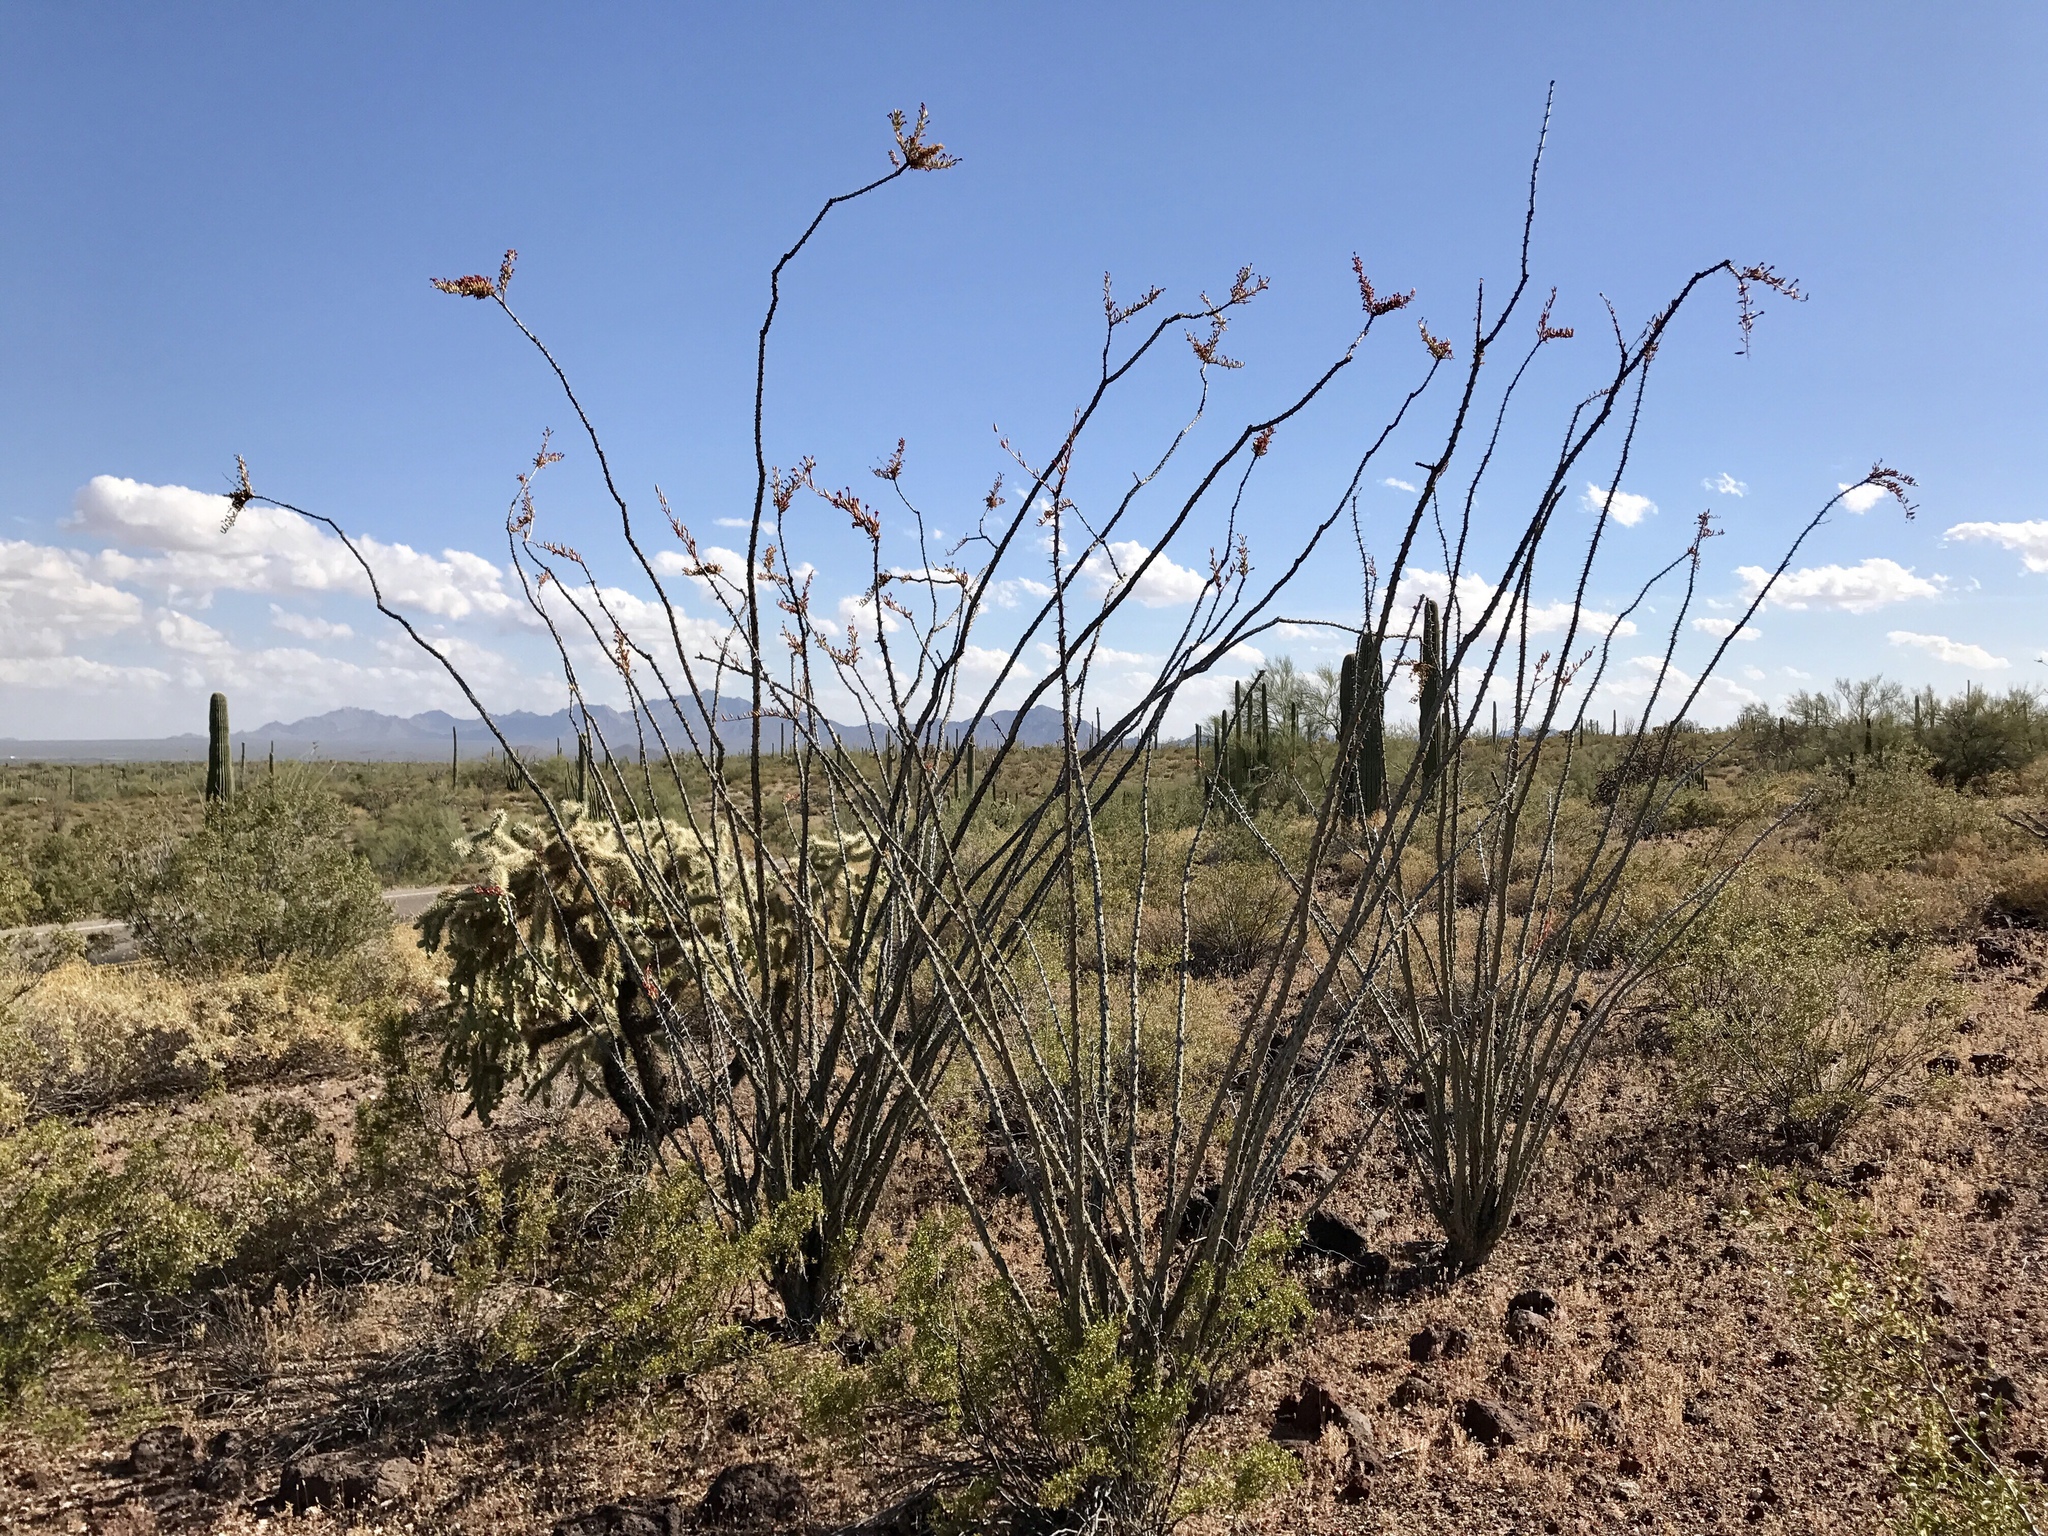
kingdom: Plantae
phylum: Tracheophyta
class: Magnoliopsida
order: Ericales
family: Fouquieriaceae
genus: Fouquieria
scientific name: Fouquieria splendens
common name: Vine-cactus
